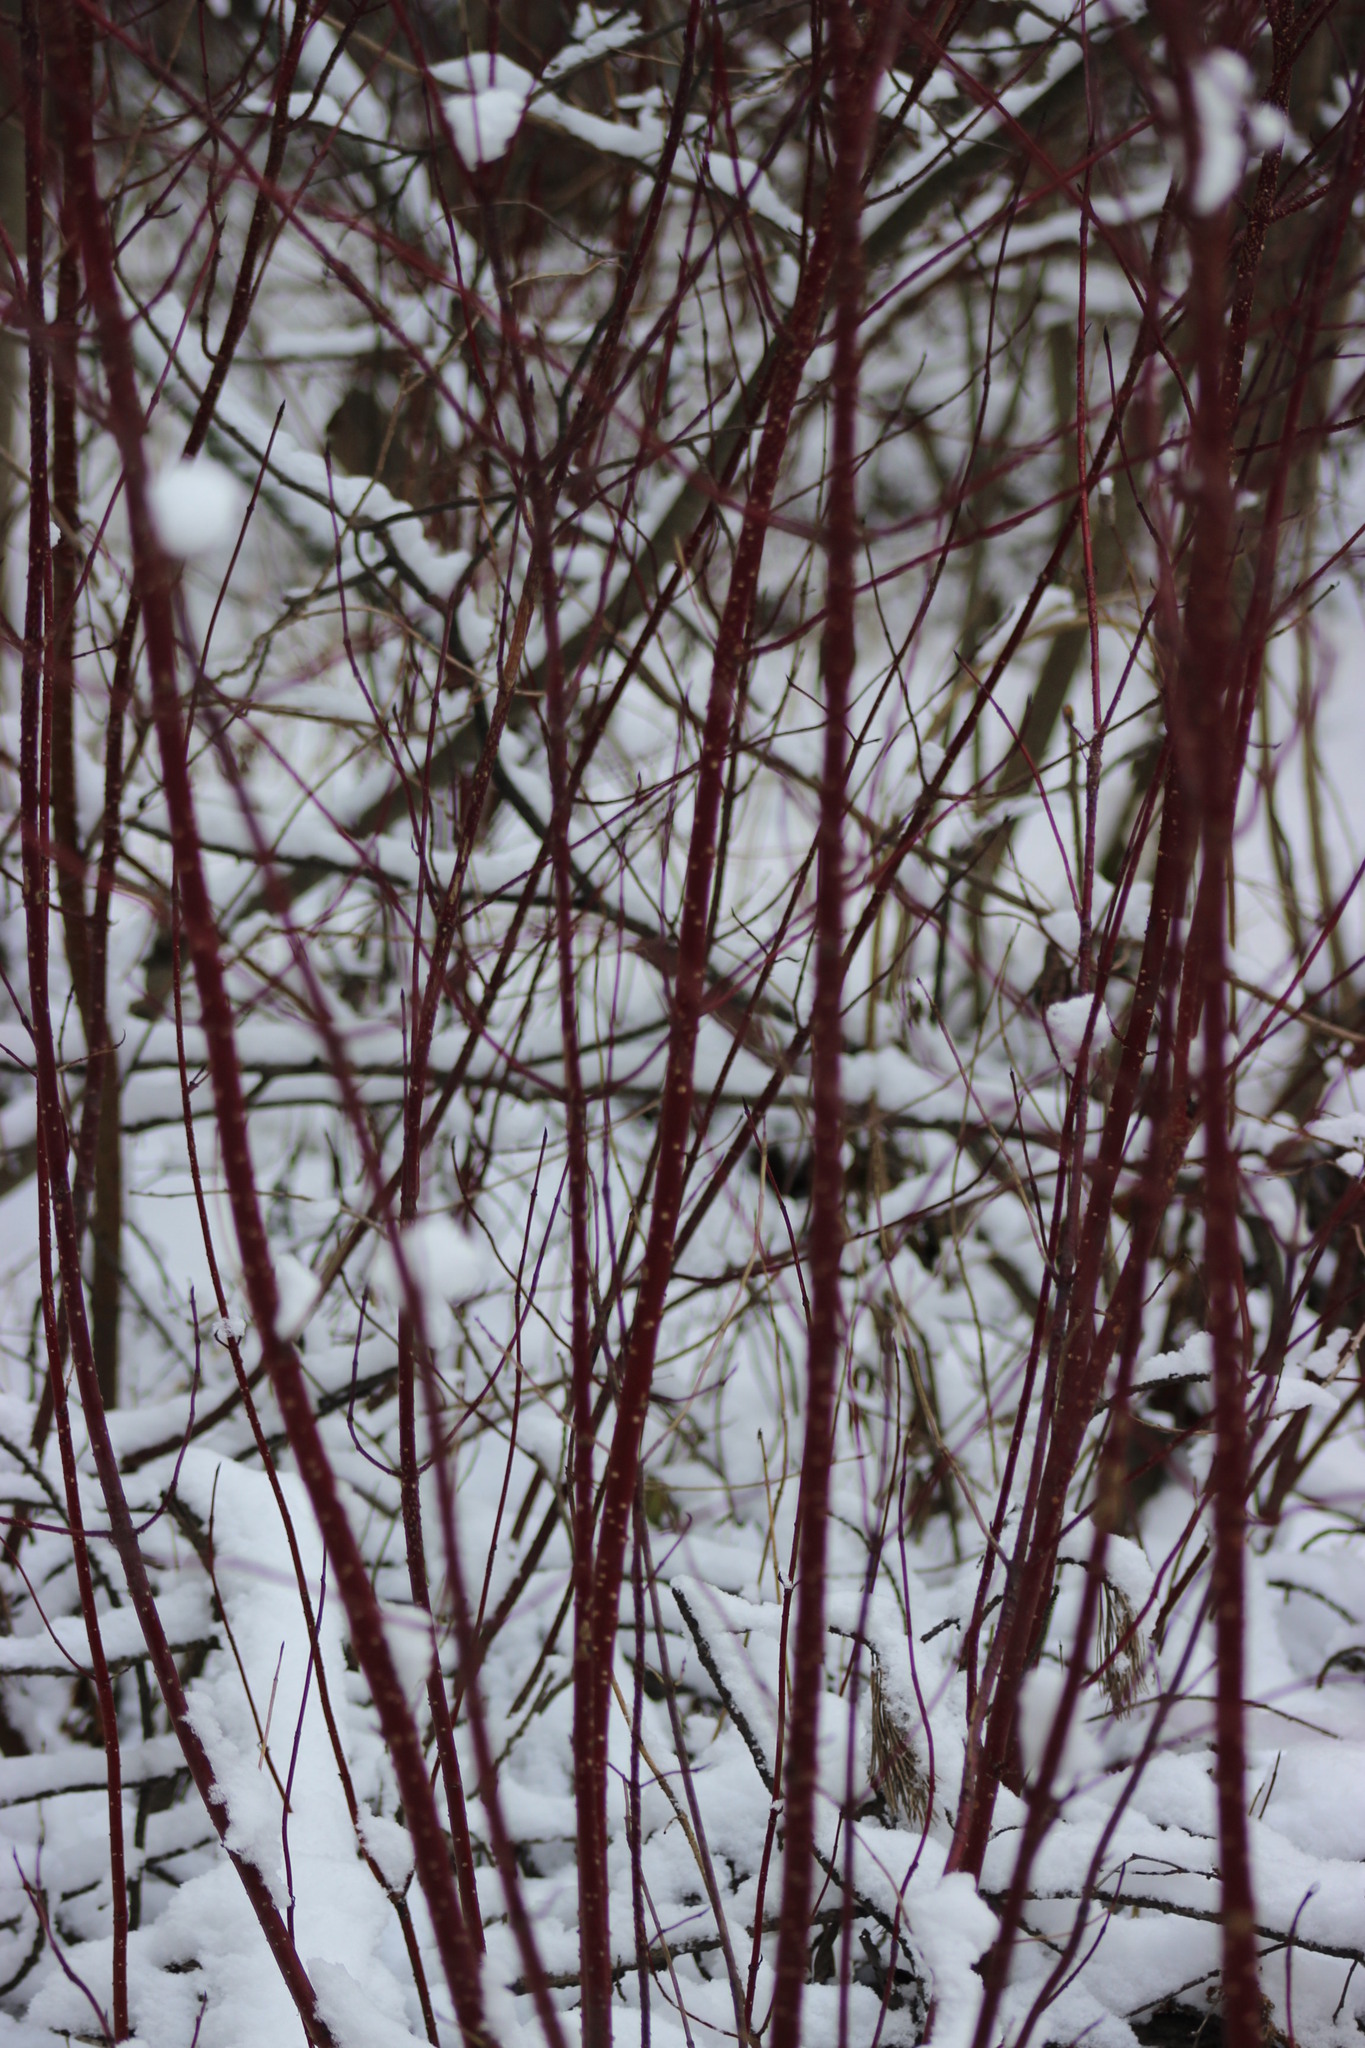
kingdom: Plantae
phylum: Tracheophyta
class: Magnoliopsida
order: Cornales
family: Cornaceae
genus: Cornus
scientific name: Cornus alba
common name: White dogwood
